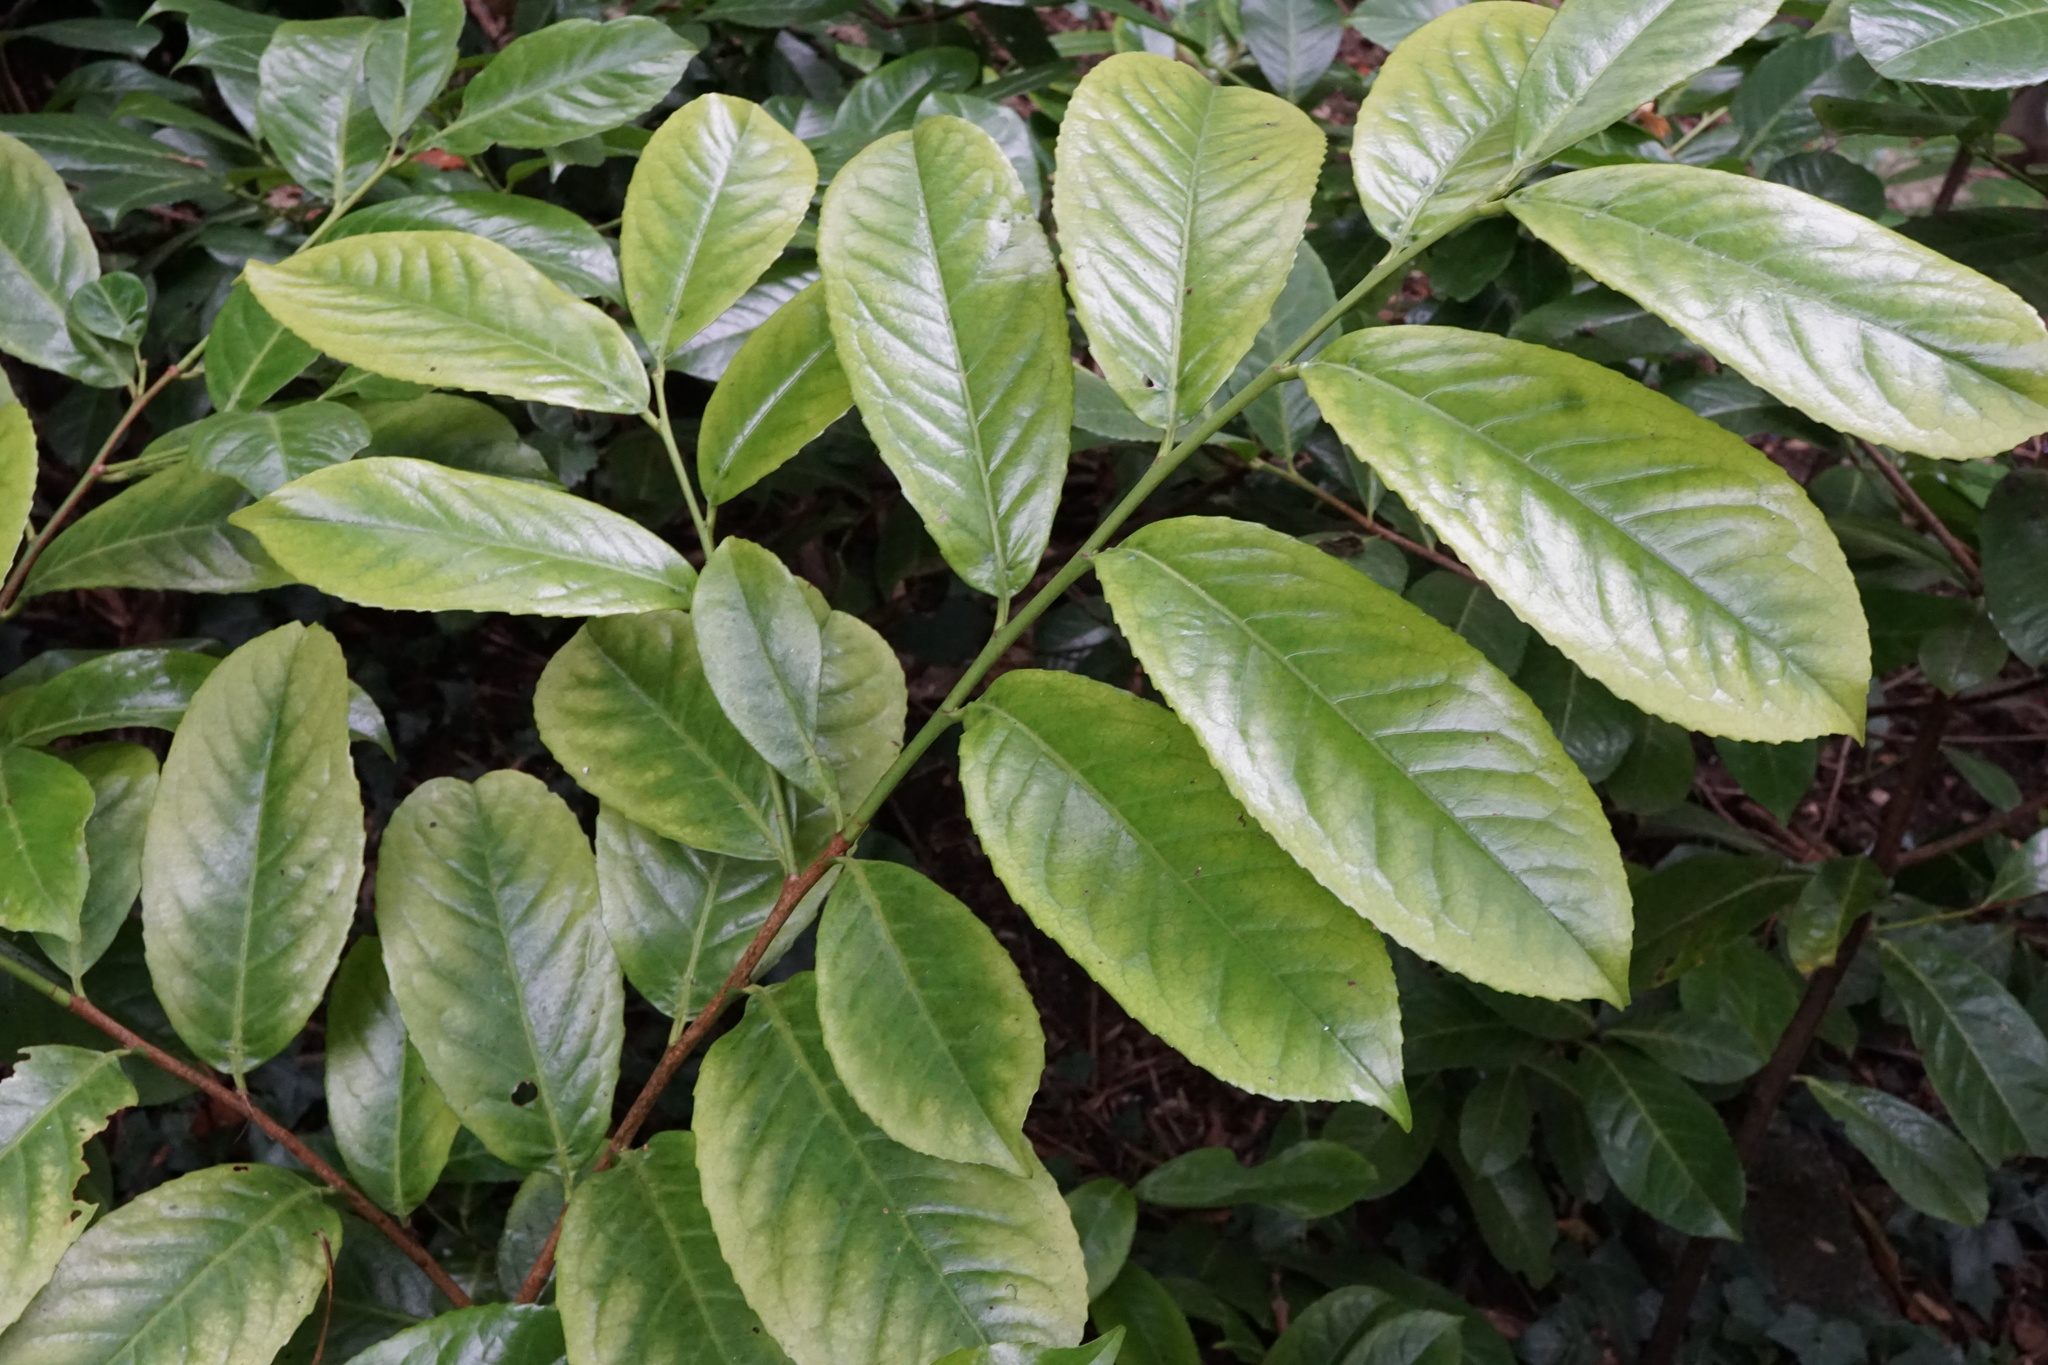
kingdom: Plantae
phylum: Tracheophyta
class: Magnoliopsida
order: Rosales
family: Rosaceae
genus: Prunus
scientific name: Prunus laurocerasus
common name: Cherry laurel
